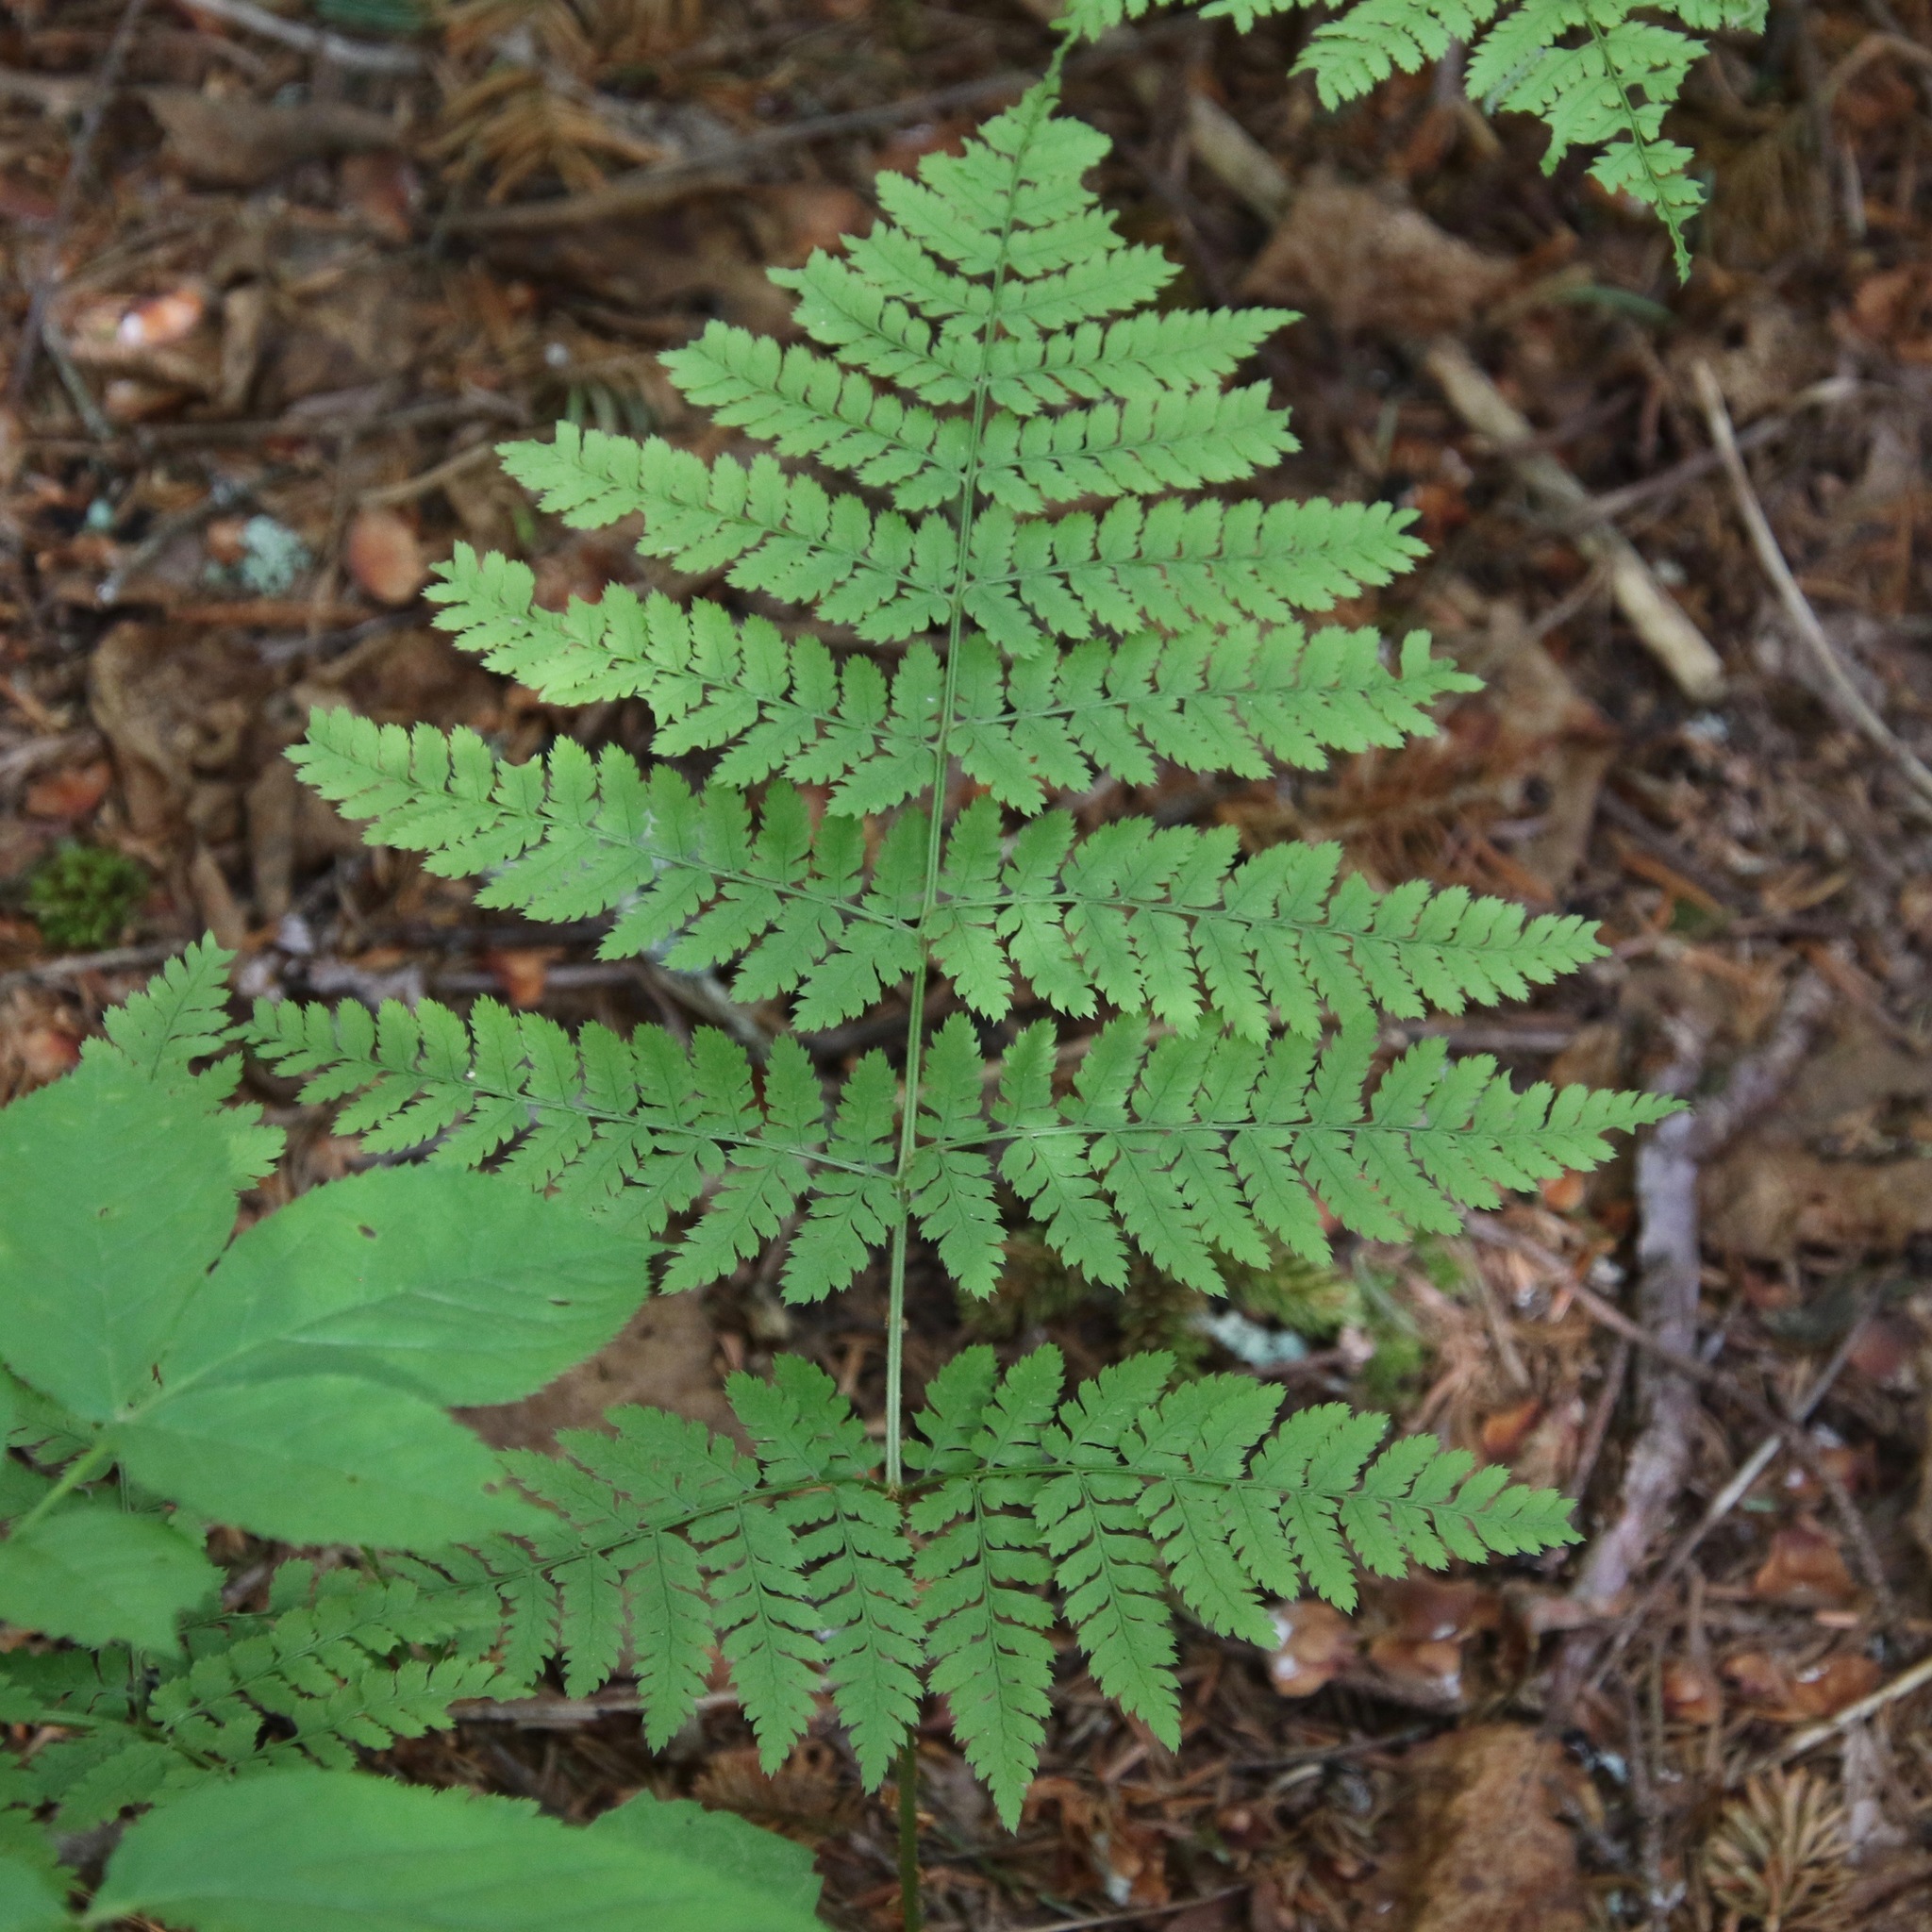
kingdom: Plantae
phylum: Tracheophyta
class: Polypodiopsida
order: Polypodiales
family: Dryopteridaceae
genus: Dryopteris
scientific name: Dryopteris campyloptera
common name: Mountain wood fern
